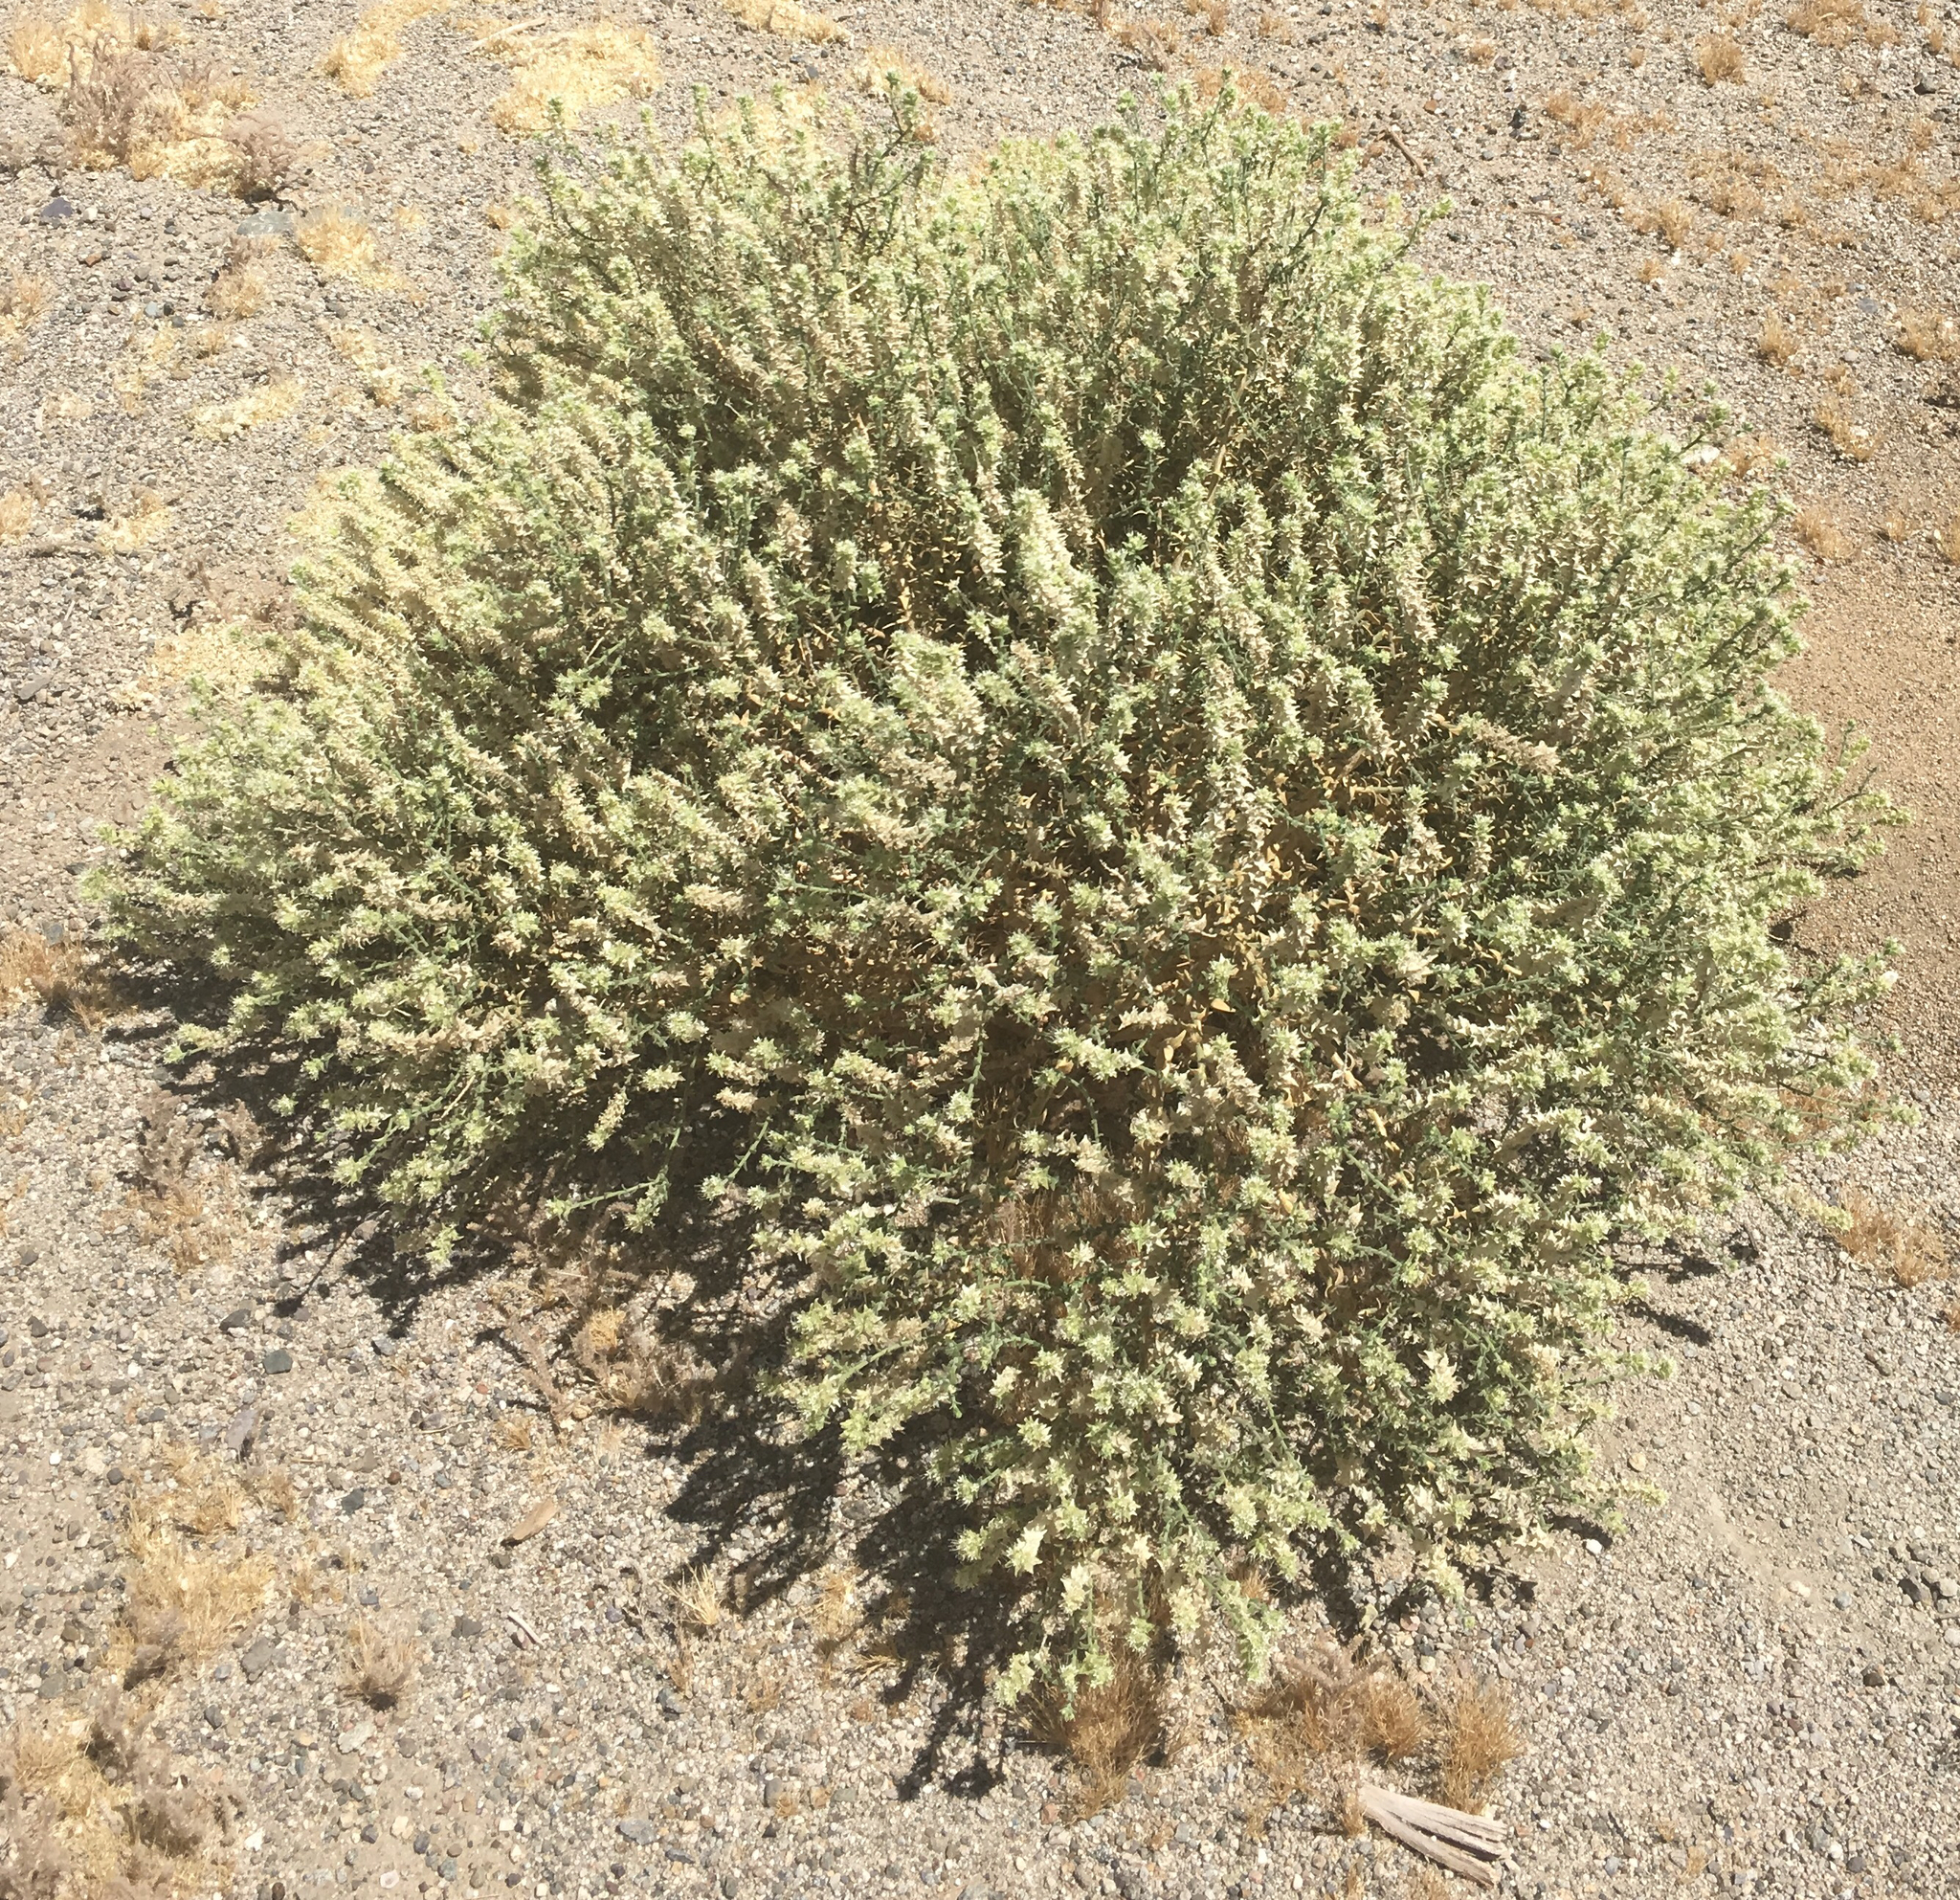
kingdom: Plantae
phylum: Tracheophyta
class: Magnoliopsida
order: Cornales
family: Loasaceae
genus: Petalonyx
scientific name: Petalonyx thurberi
